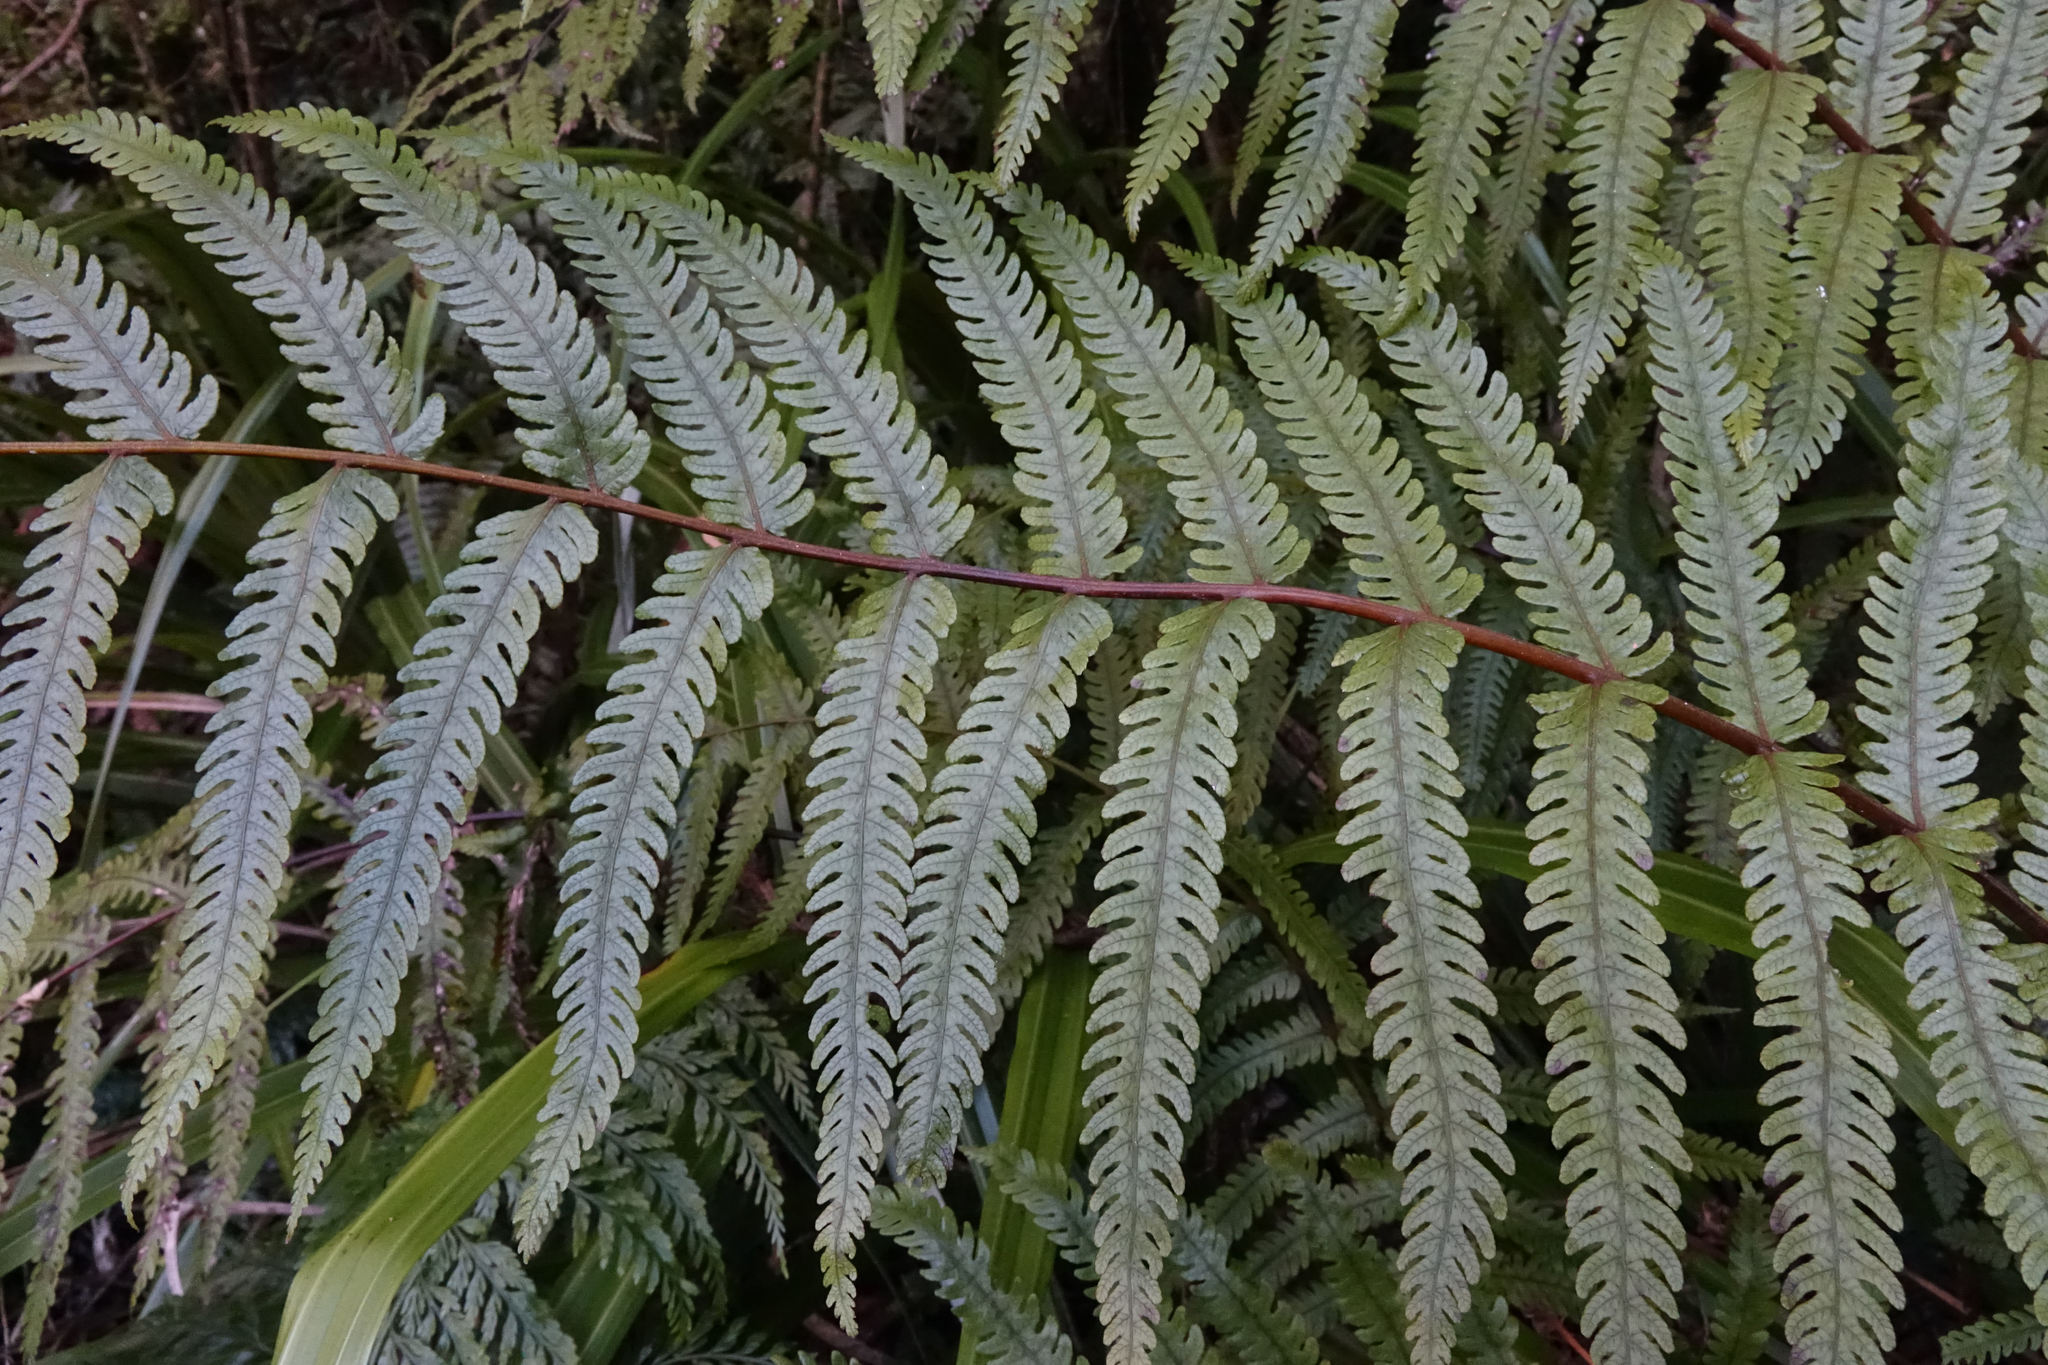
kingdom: Plantae
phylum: Tracheophyta
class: Polypodiopsida
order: Polypodiales
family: Thelypteridaceae
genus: Pakau
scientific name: Pakau pennigera
